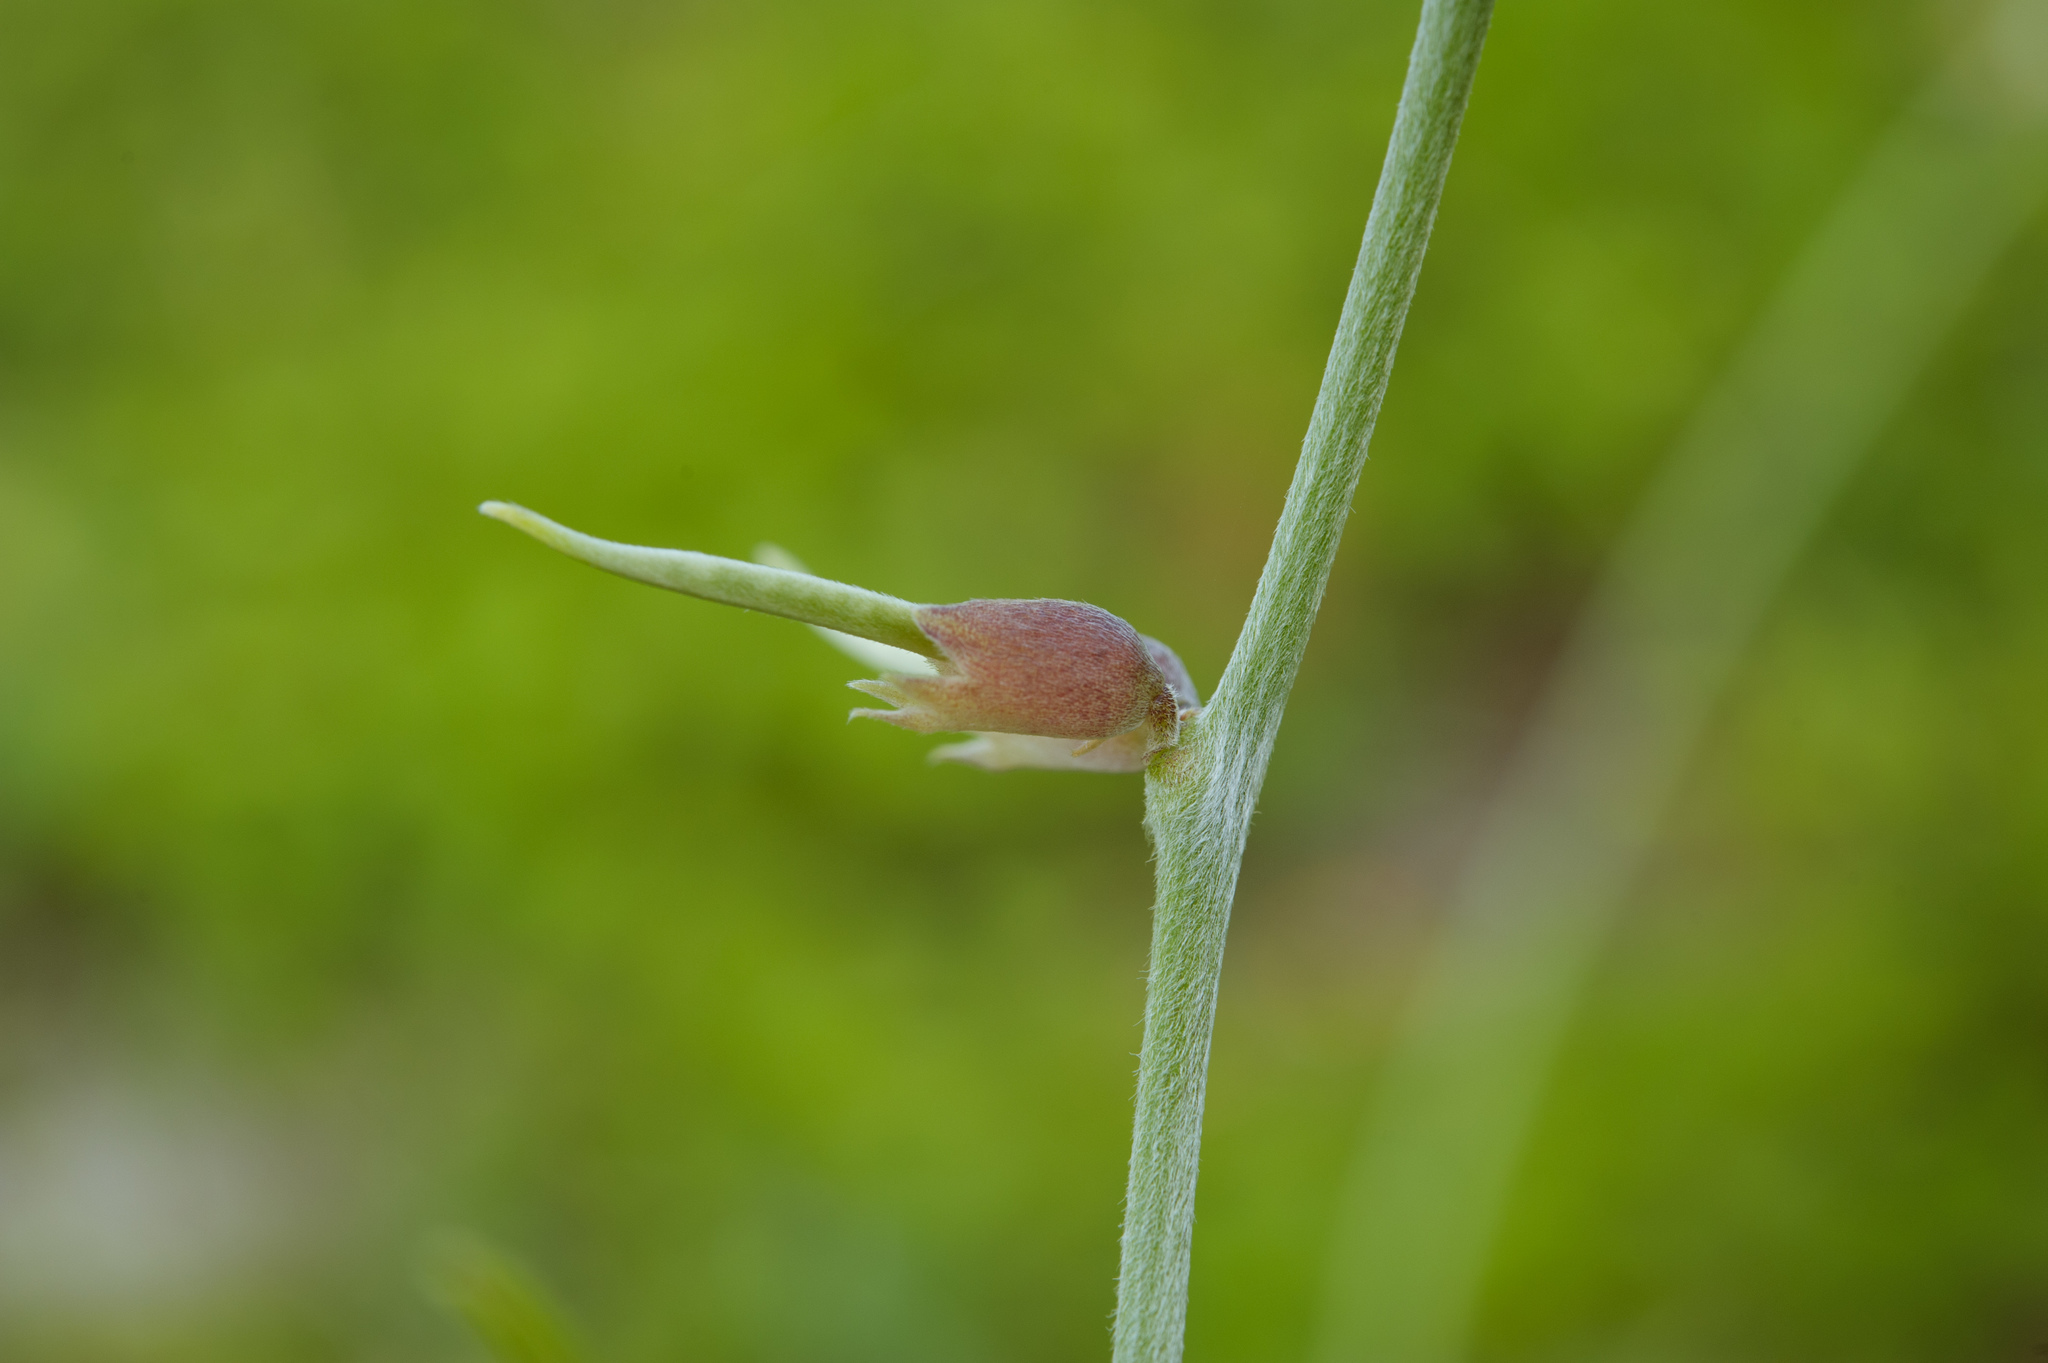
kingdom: Plantae
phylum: Tracheophyta
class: Magnoliopsida
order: Fabales
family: Fabaceae
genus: Macroptilium
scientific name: Macroptilium atropurpureum
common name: Purple bushbean
